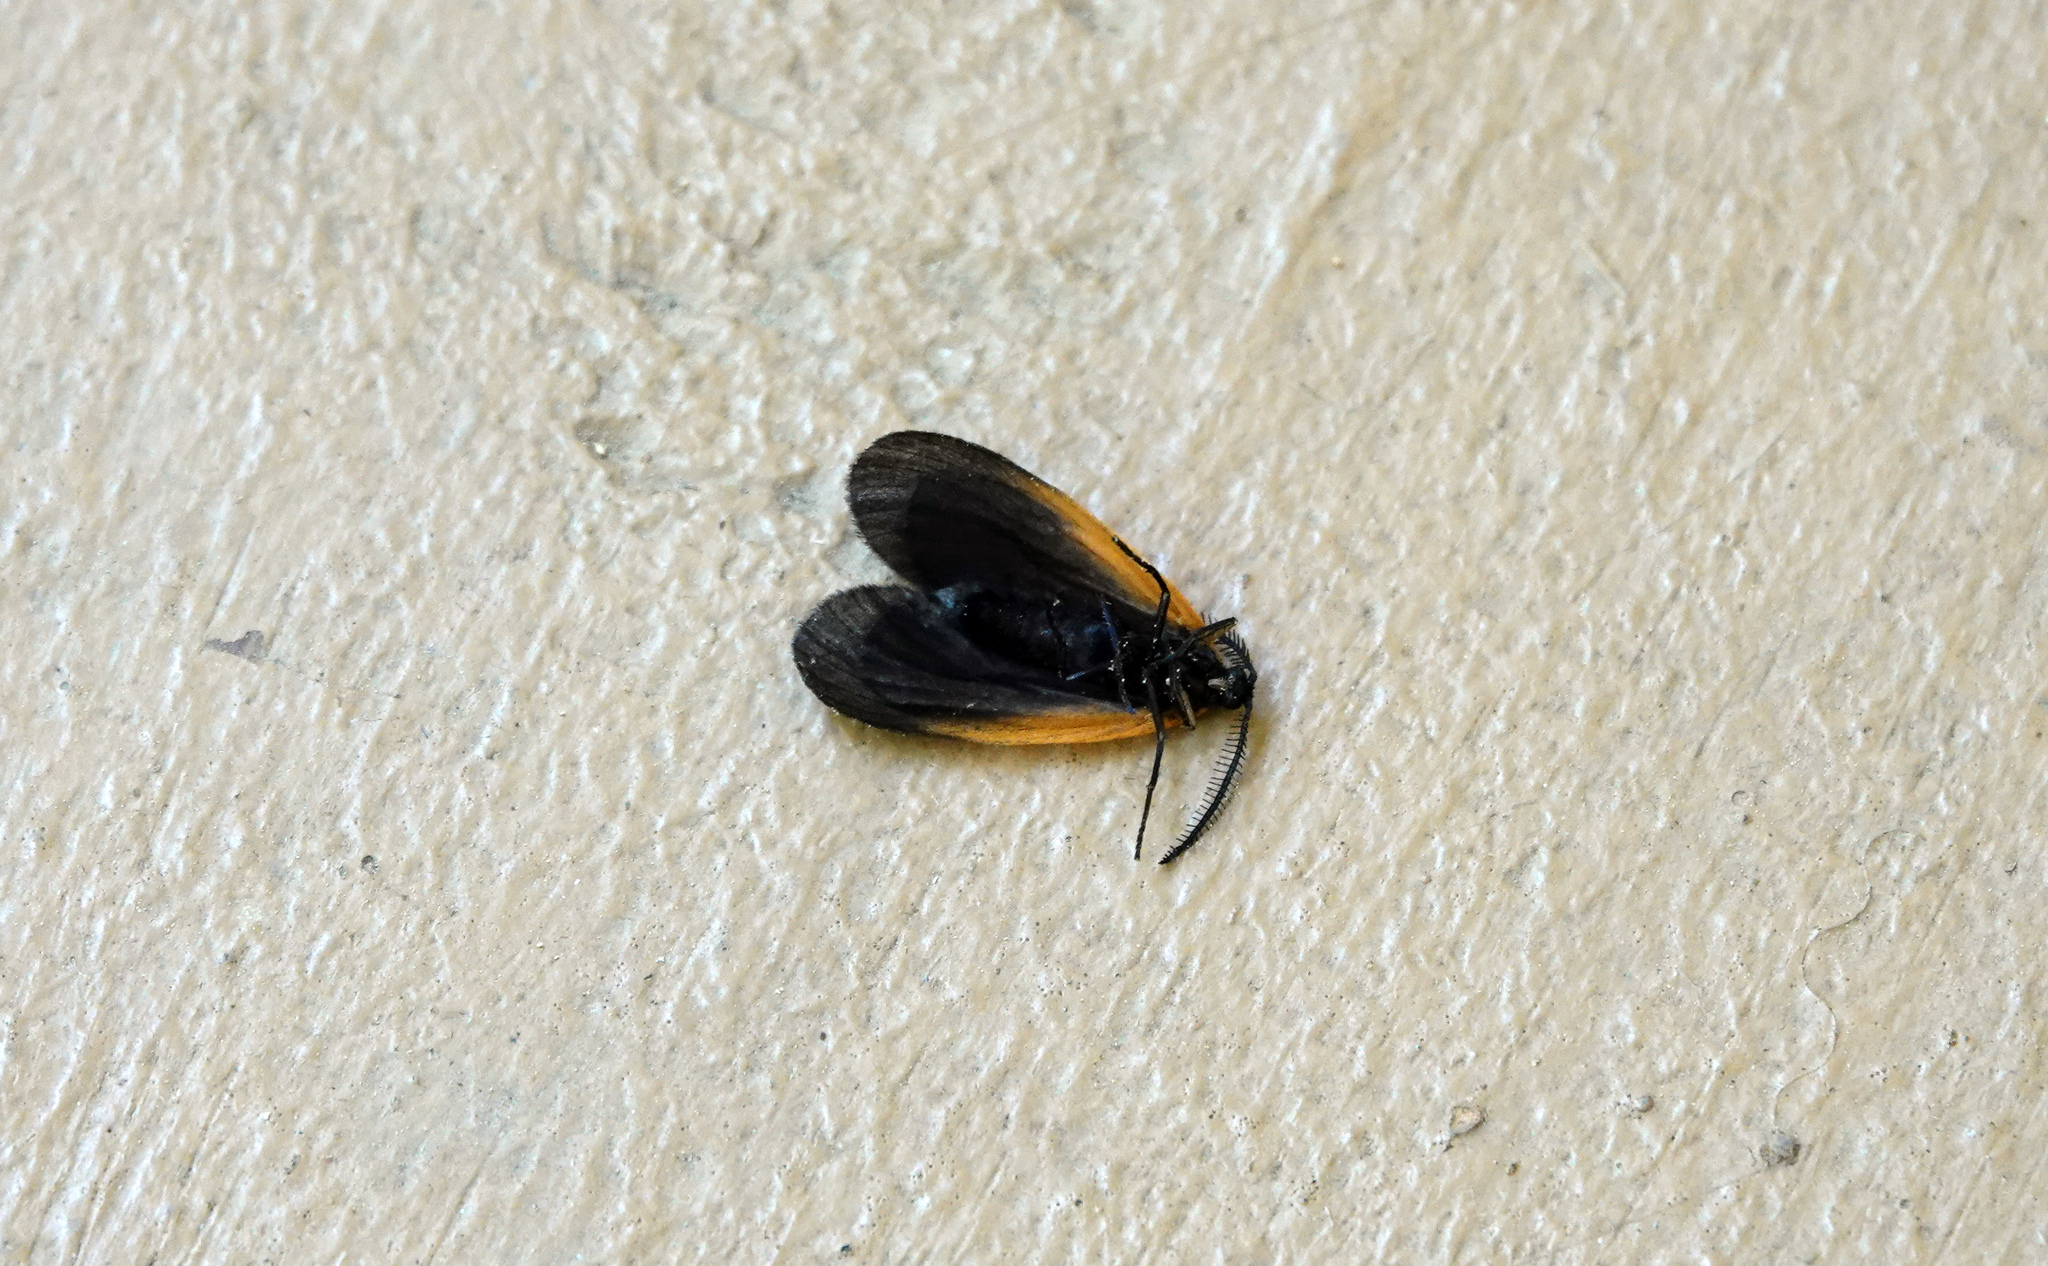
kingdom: Animalia
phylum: Arthropoda
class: Insecta
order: Lepidoptera
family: Zygaenidae
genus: Malthaca
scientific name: Malthaca dimidiata
